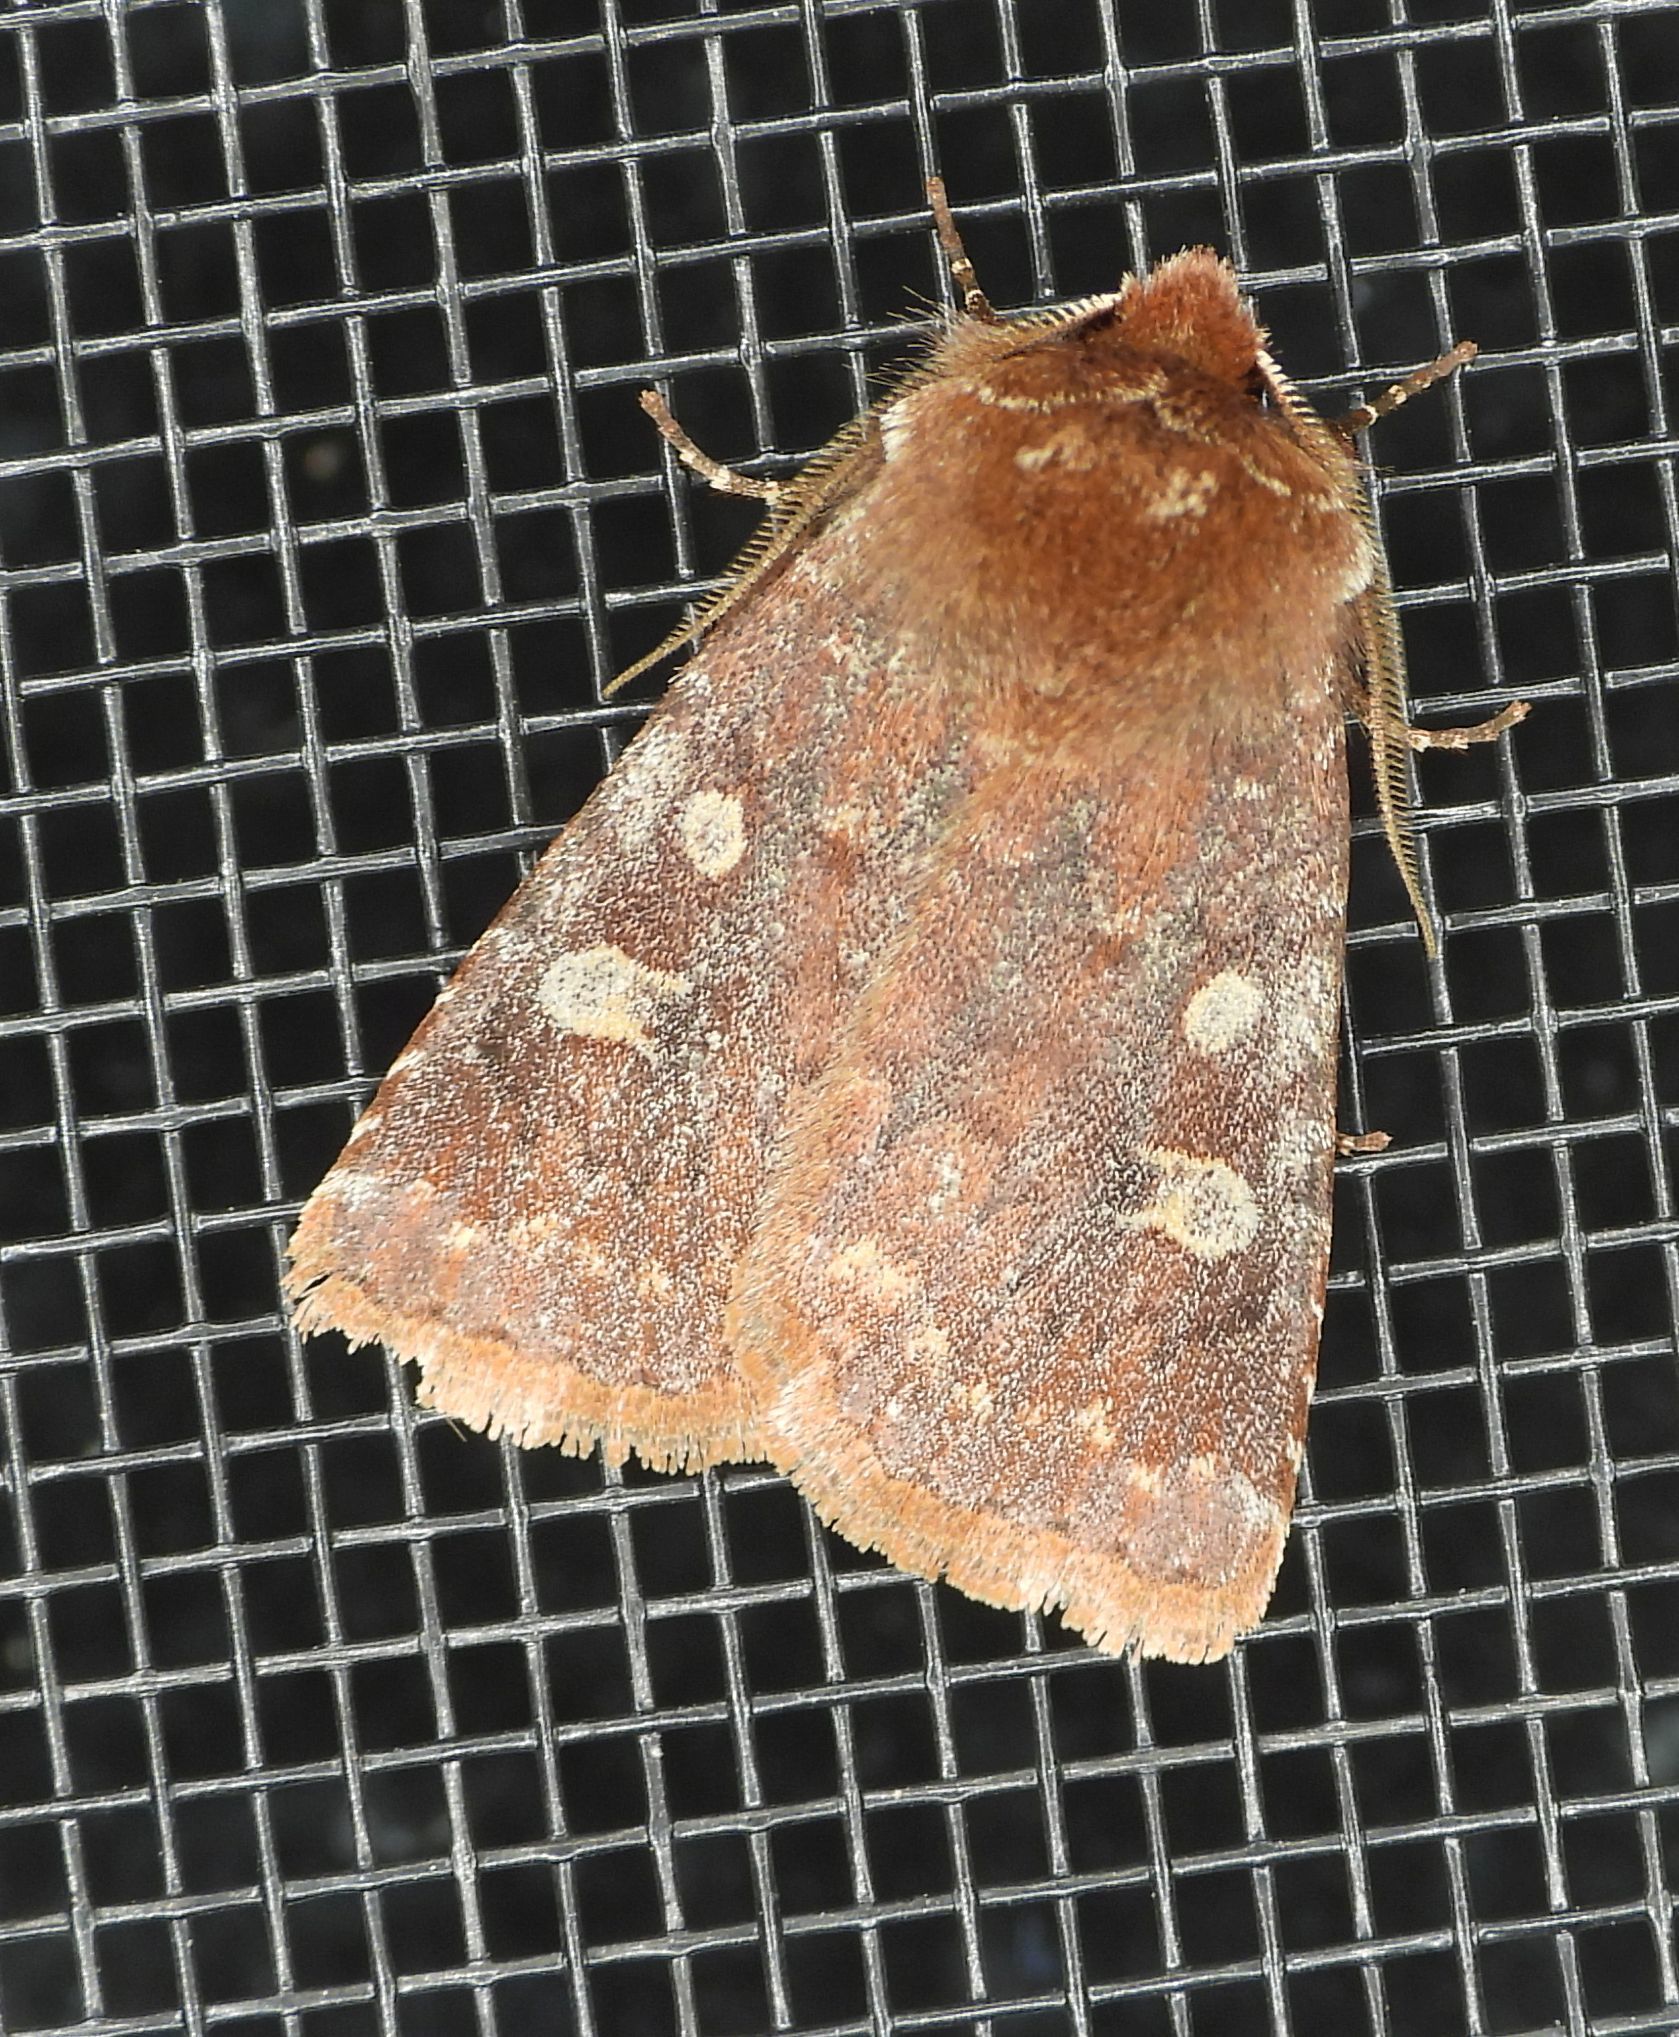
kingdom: Animalia
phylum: Arthropoda
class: Insecta
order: Lepidoptera
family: Noctuidae
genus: Cerastis
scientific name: Cerastis tenebrifera
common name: Reddish speckled dart
